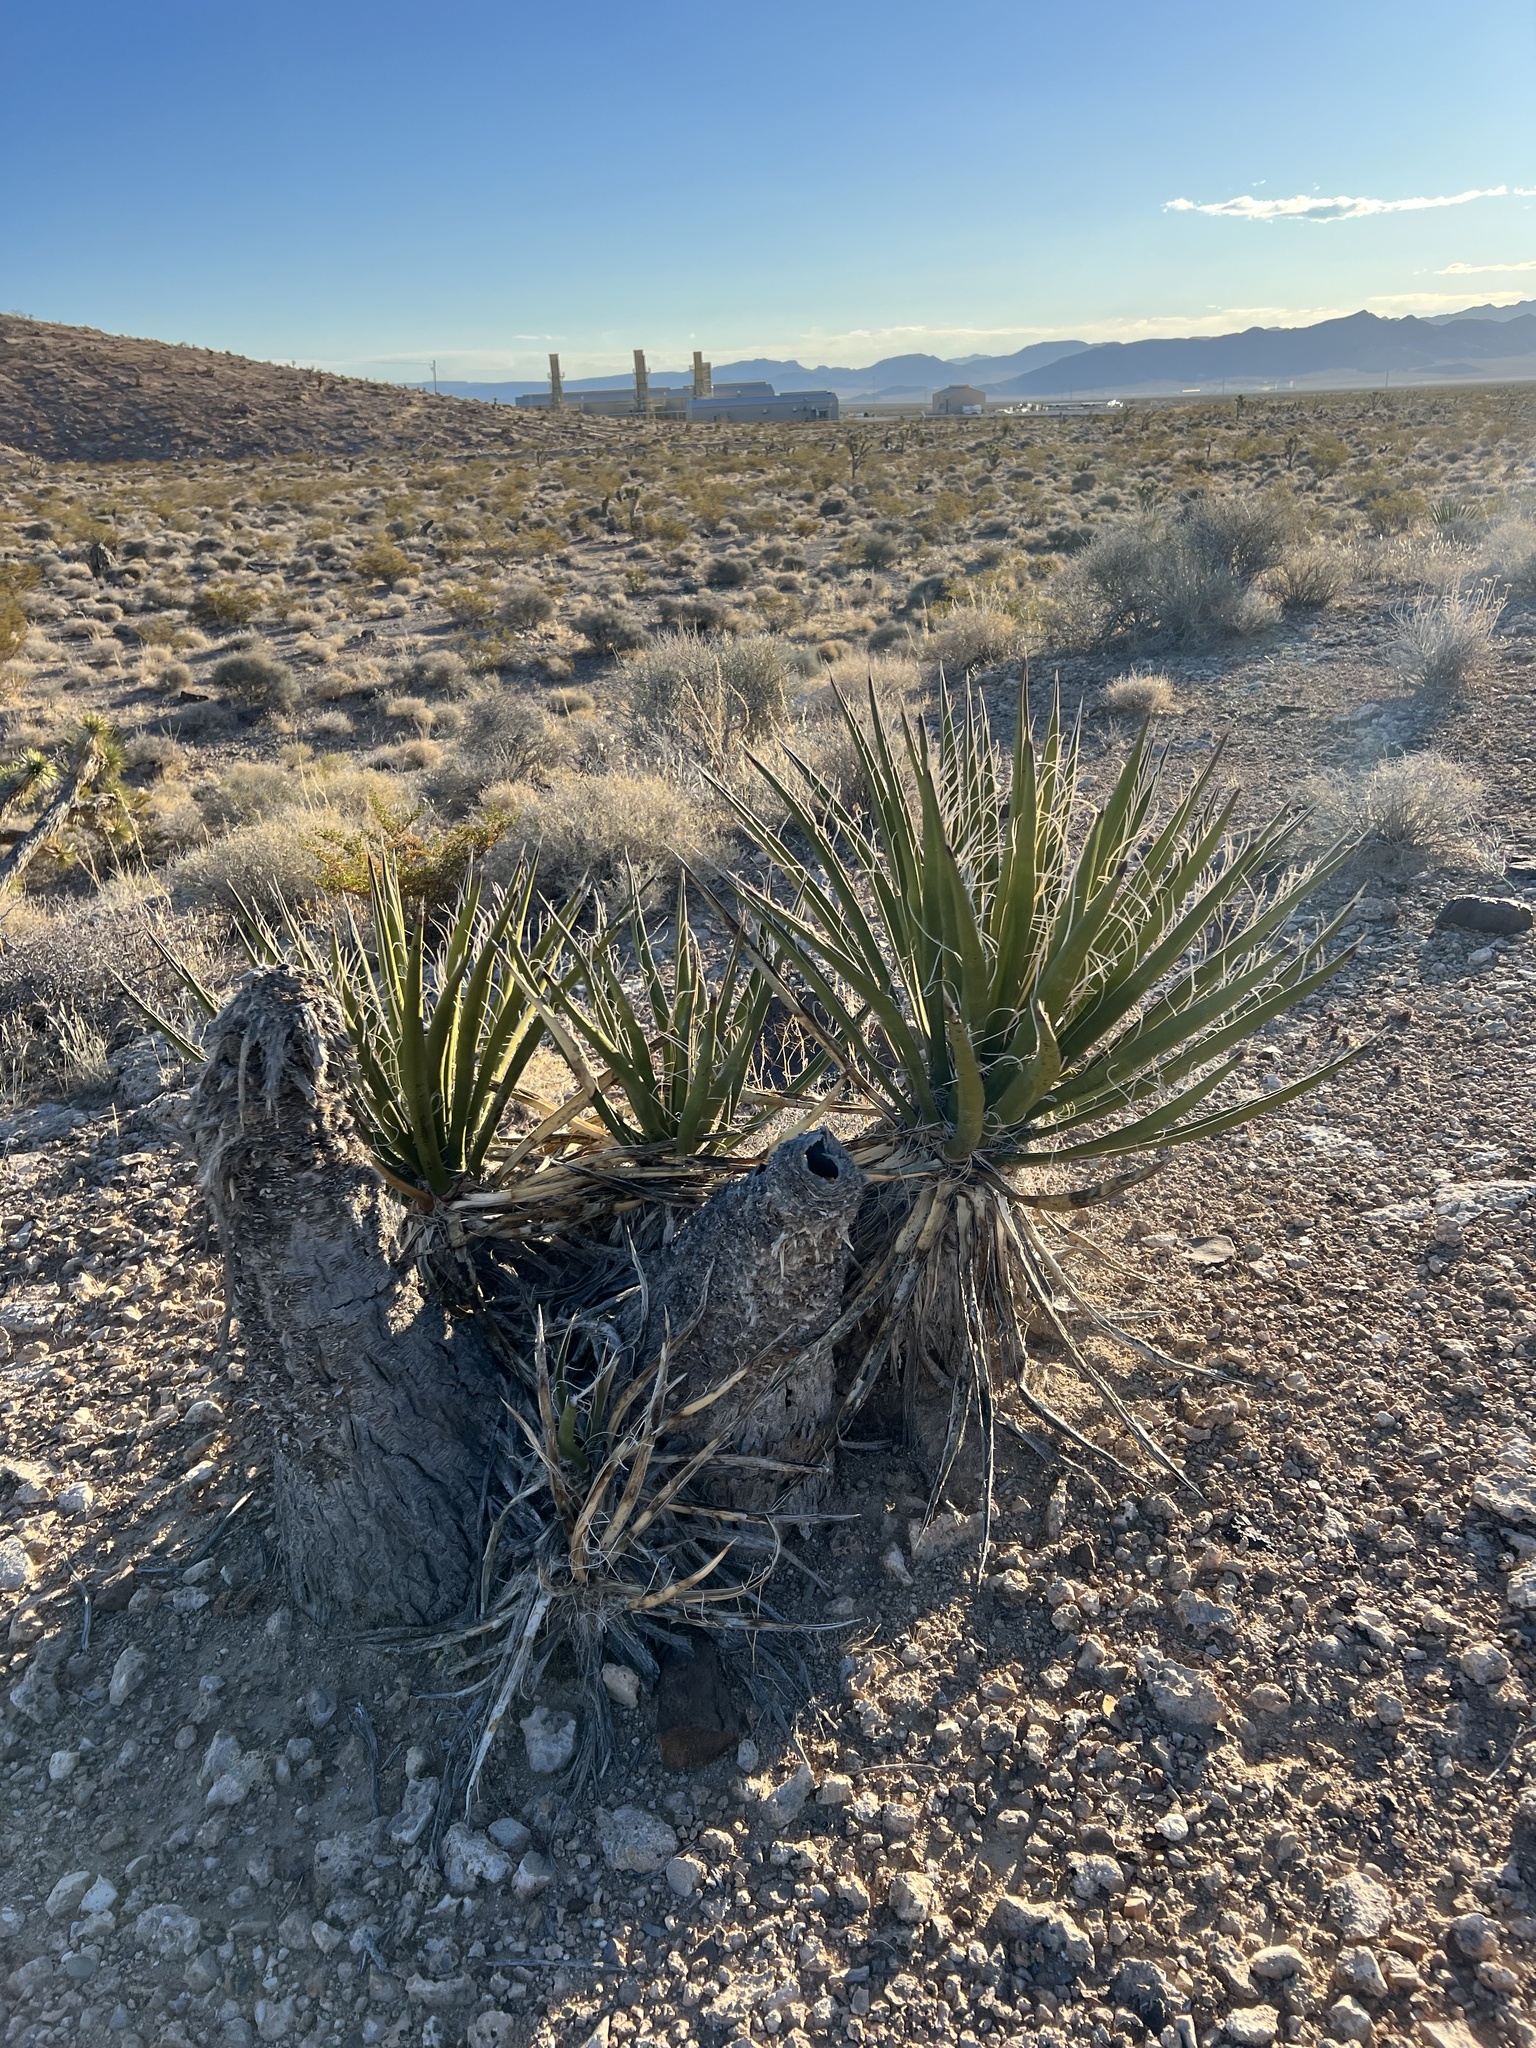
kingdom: Plantae
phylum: Tracheophyta
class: Liliopsida
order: Asparagales
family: Asparagaceae
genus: Yucca
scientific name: Yucca schidigera
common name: Mojave yucca
